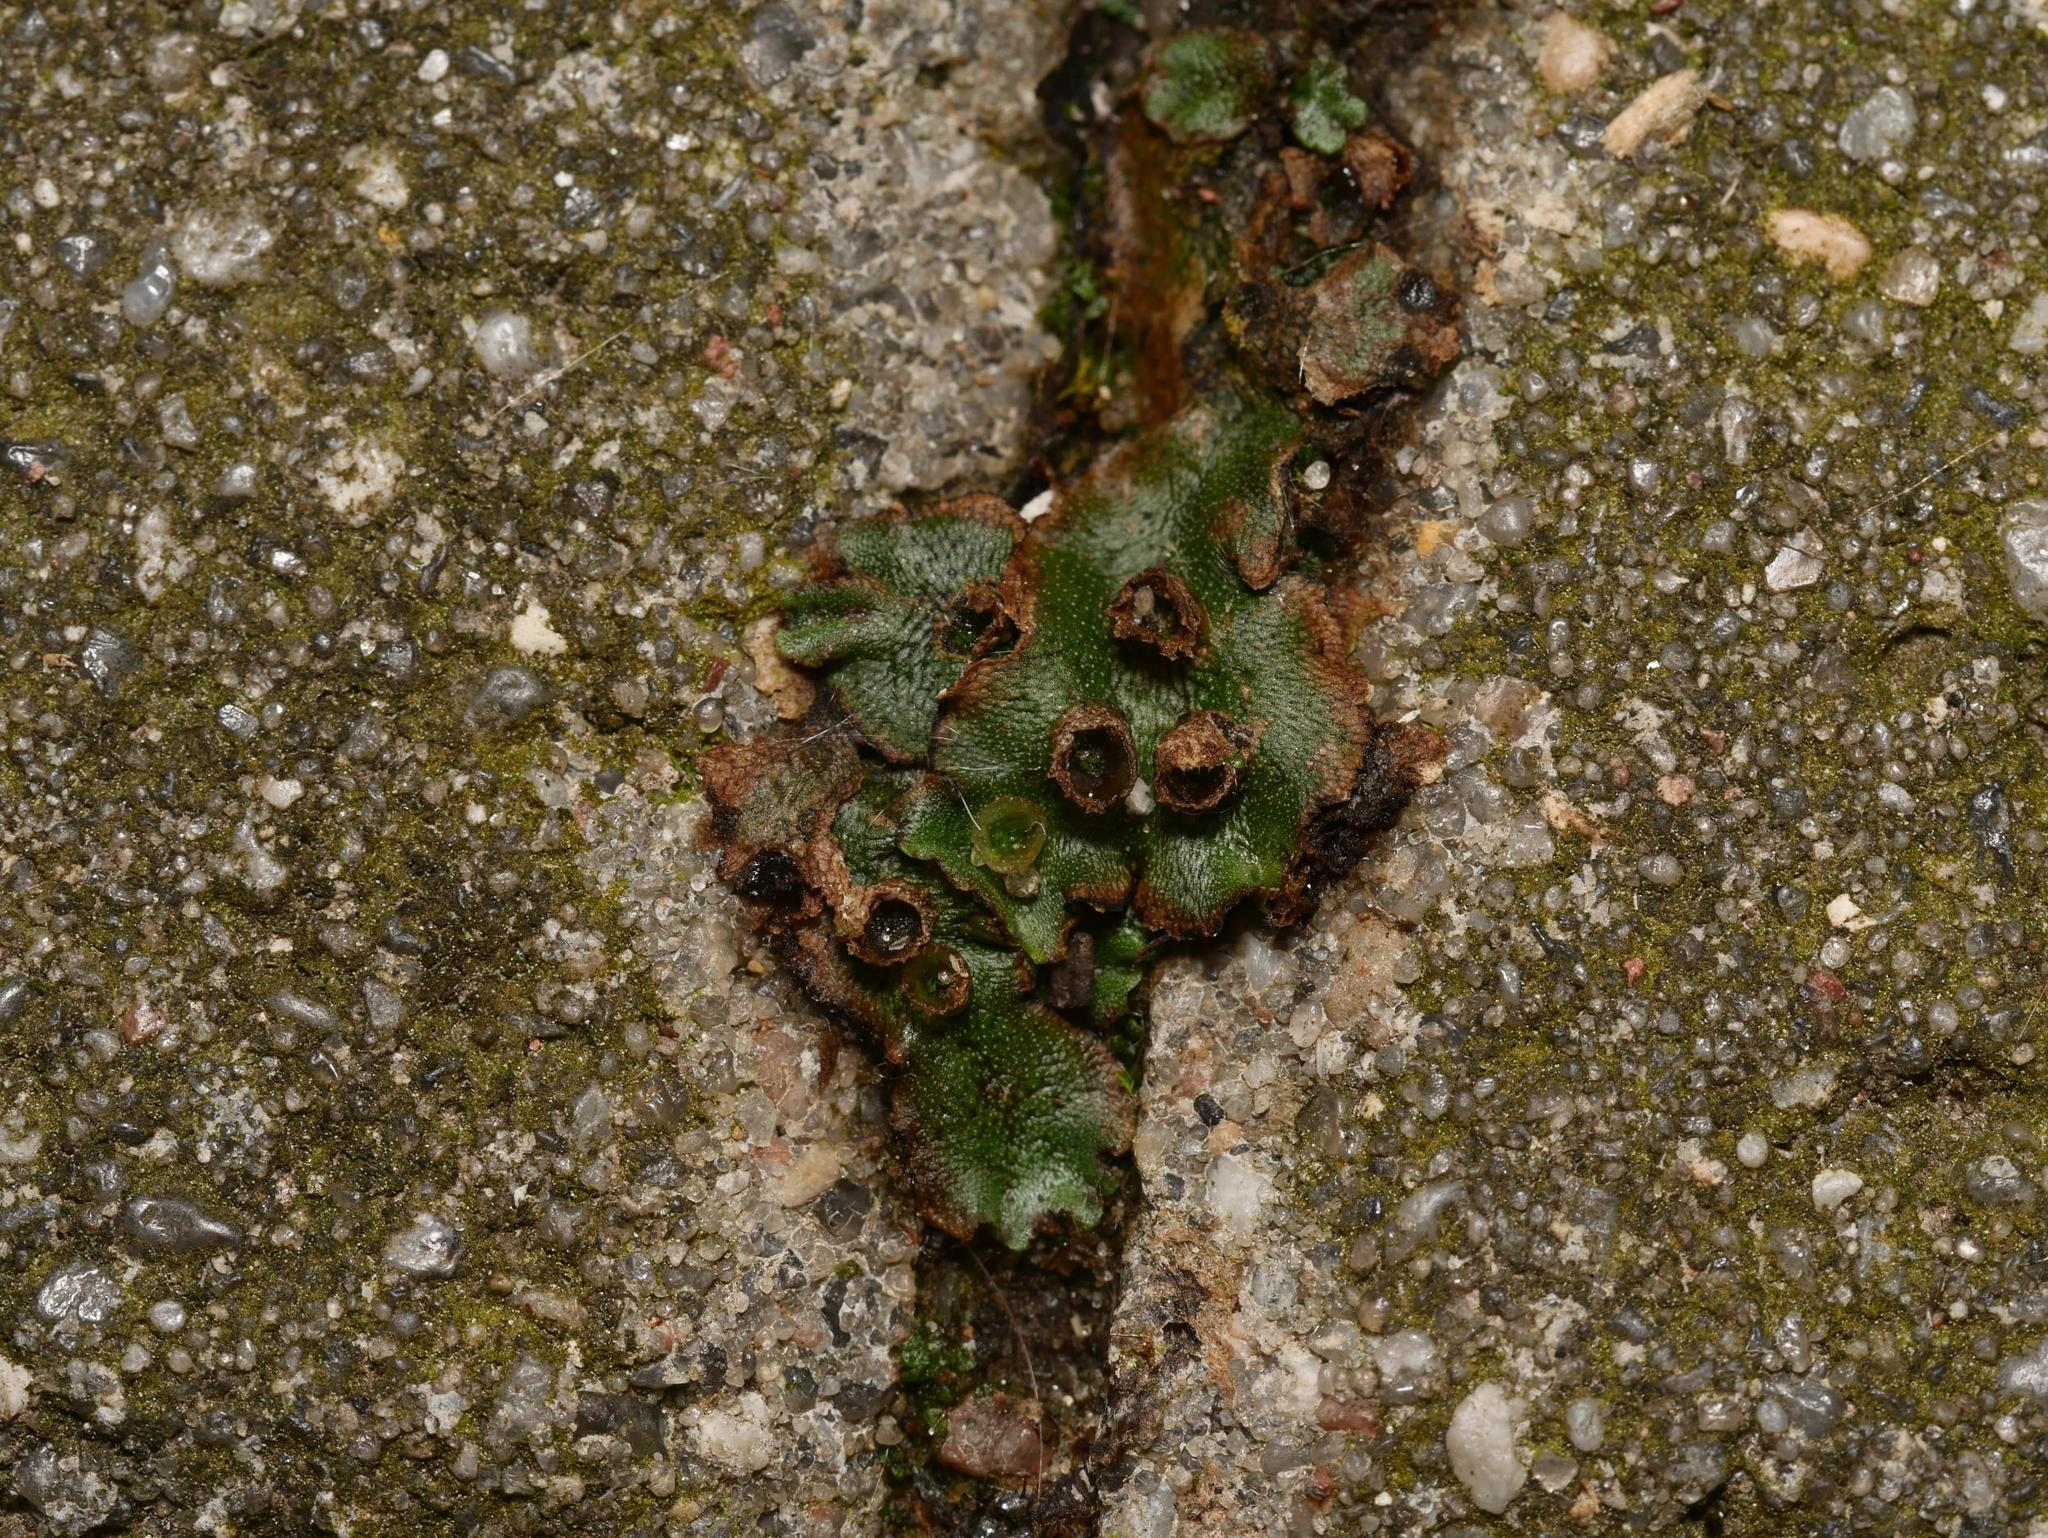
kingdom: Plantae
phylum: Marchantiophyta
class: Marchantiopsida
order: Marchantiales
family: Marchantiaceae
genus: Marchantia
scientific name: Marchantia polymorpha
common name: Common liverwort
